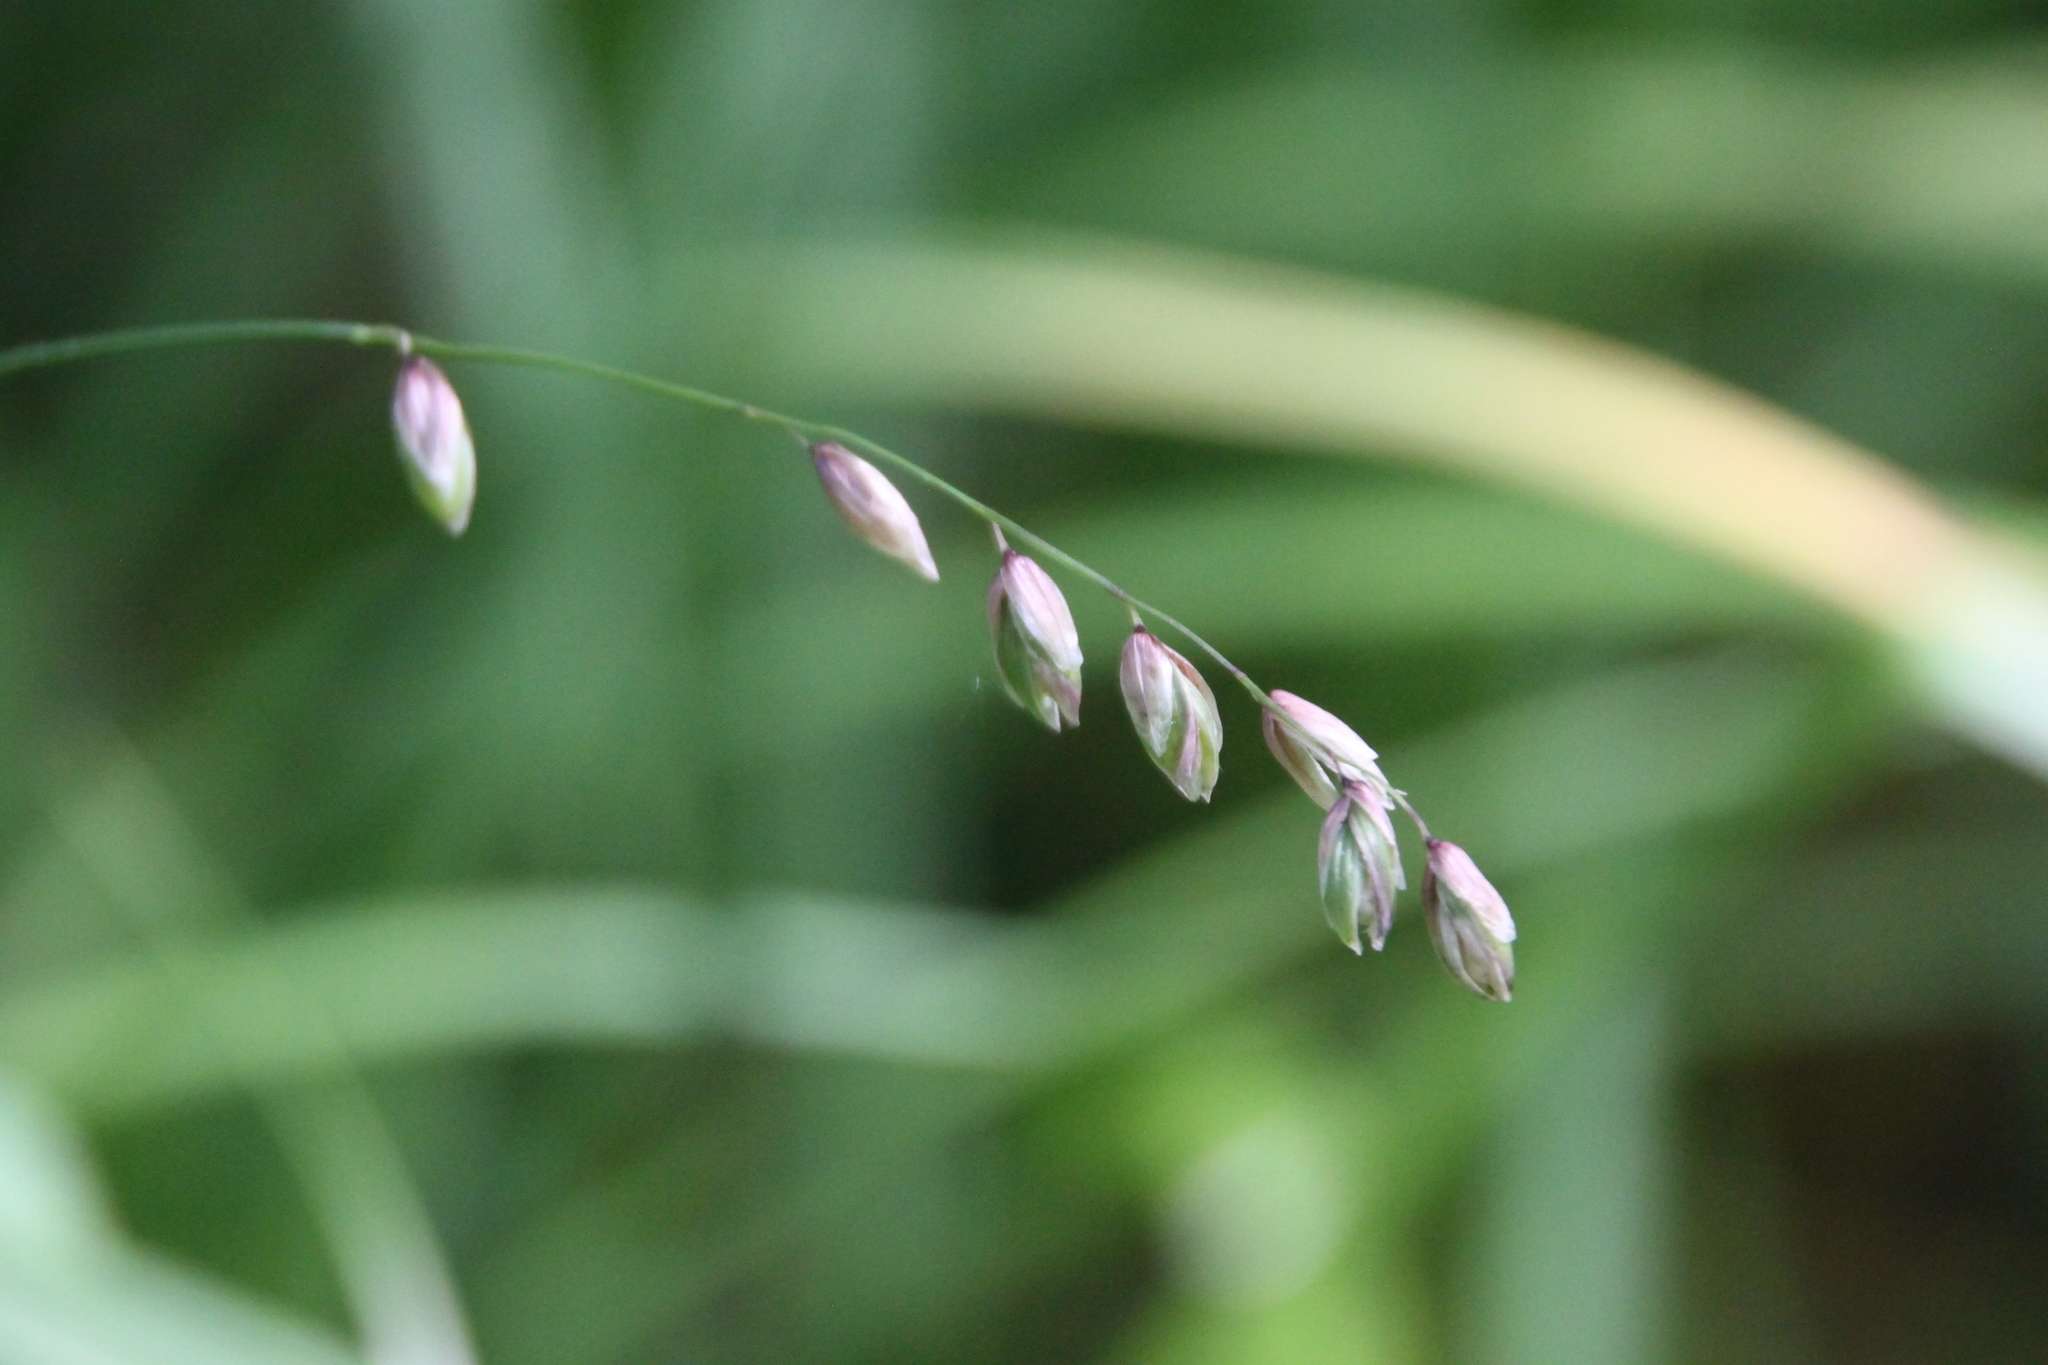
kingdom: Plantae
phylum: Tracheophyta
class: Liliopsida
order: Poales
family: Poaceae
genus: Melica
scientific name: Melica nutans
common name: Mountain melick
